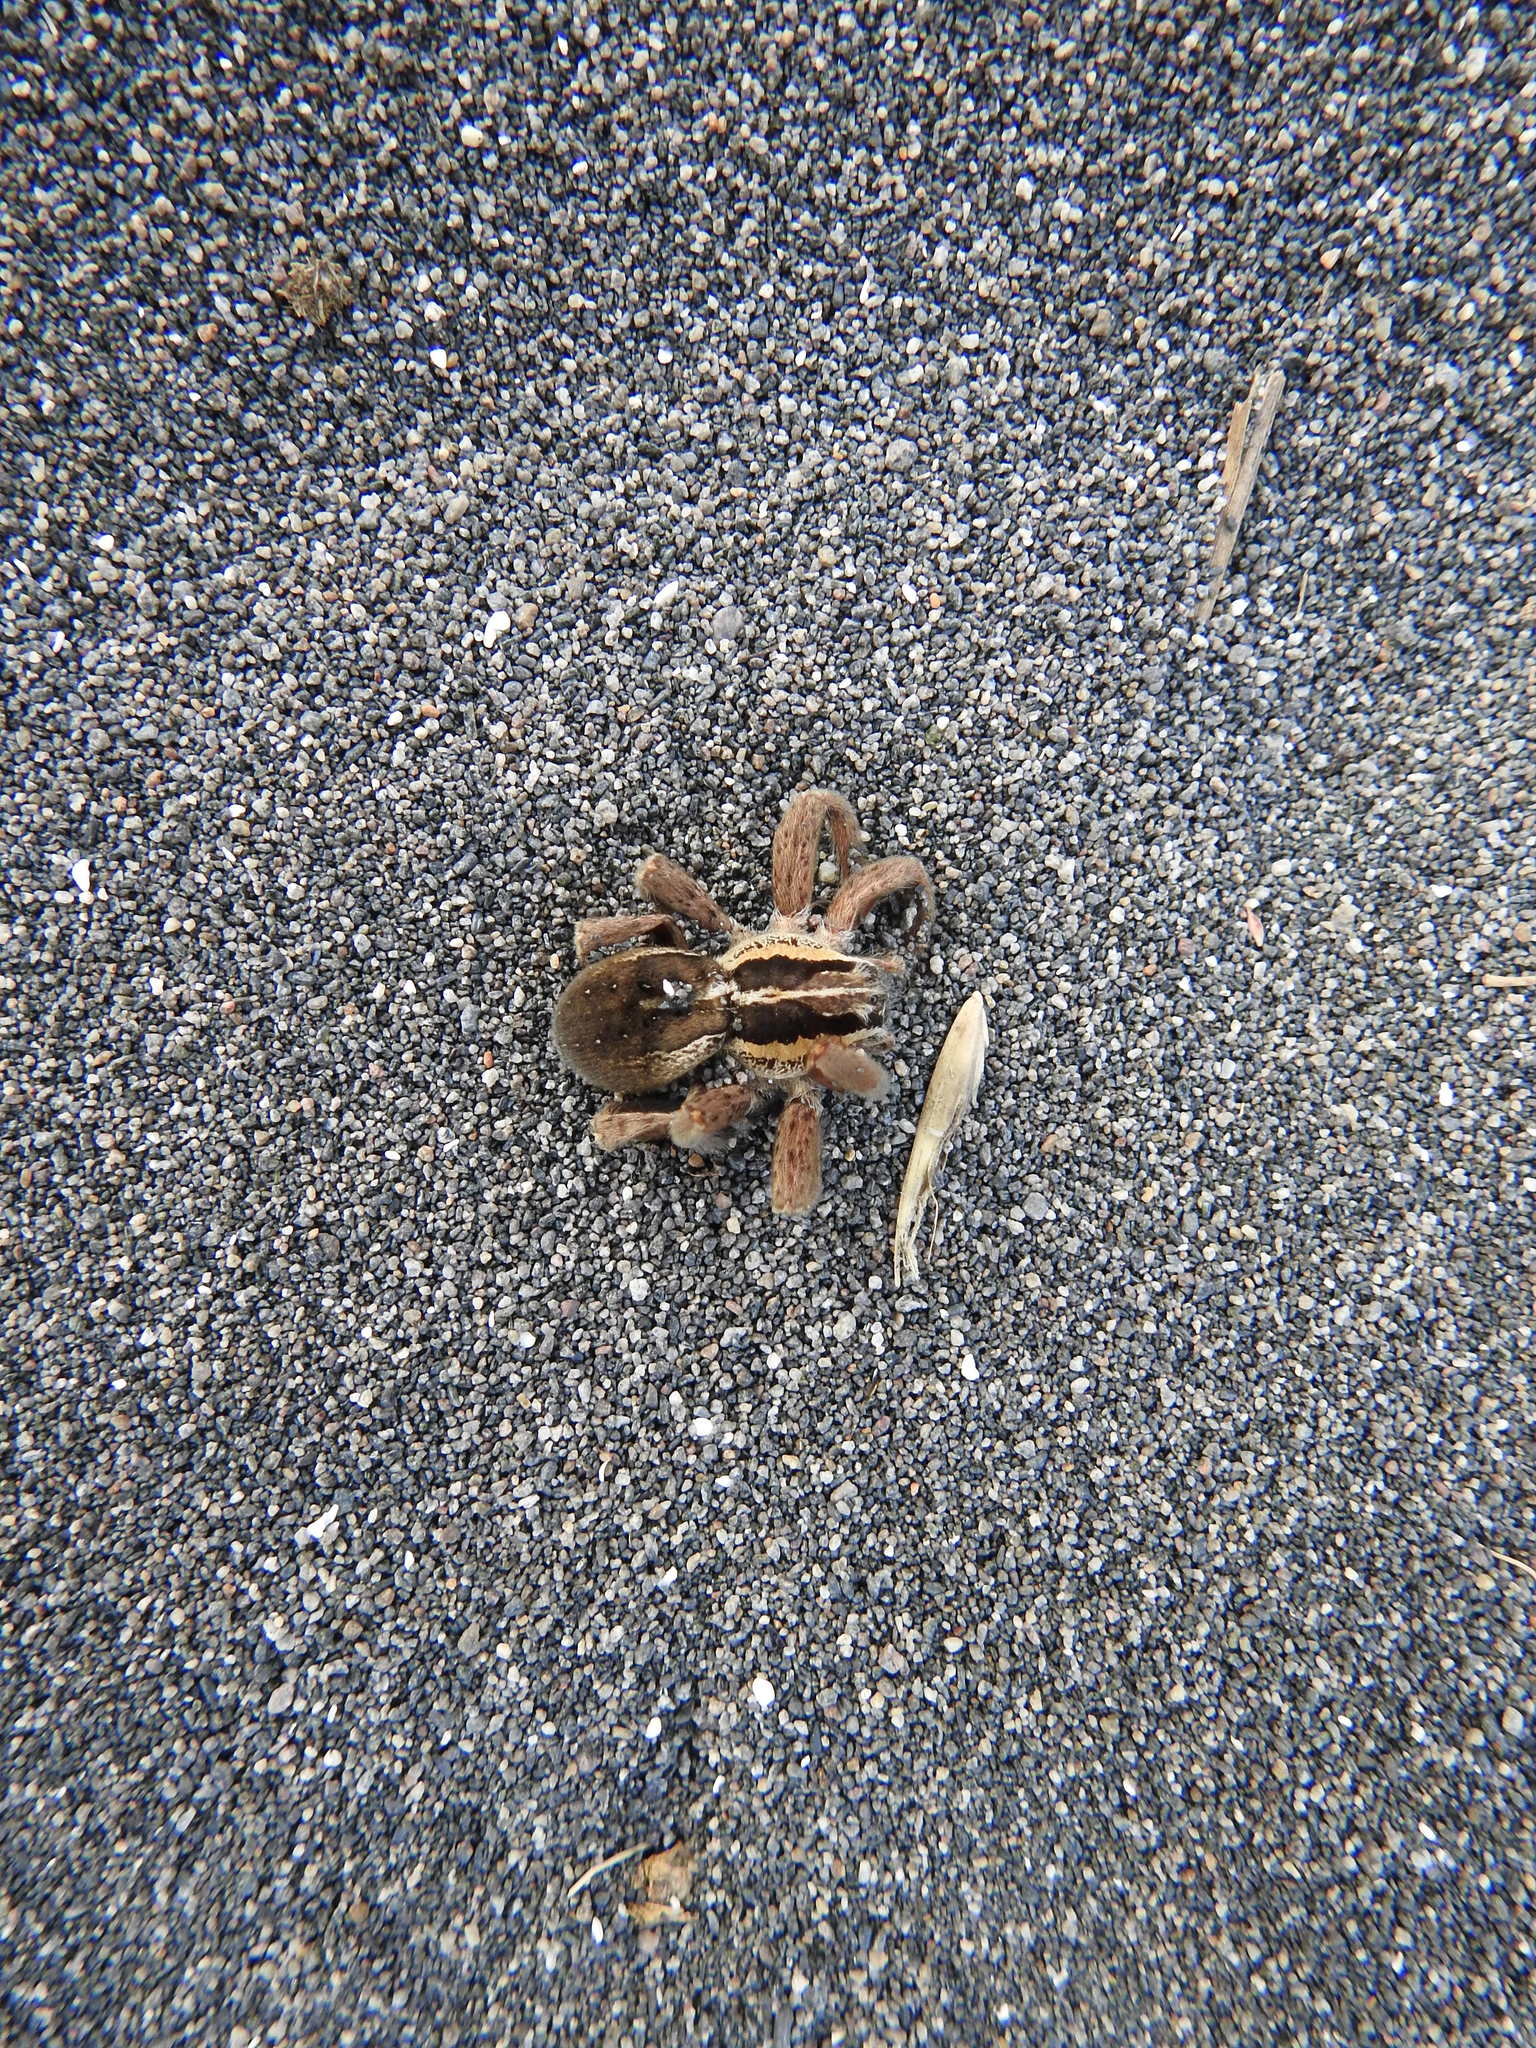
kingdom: Animalia
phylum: Arthropoda
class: Arachnida
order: Araneae
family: Pisauridae
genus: Dolomedes
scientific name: Dolomedes minor
